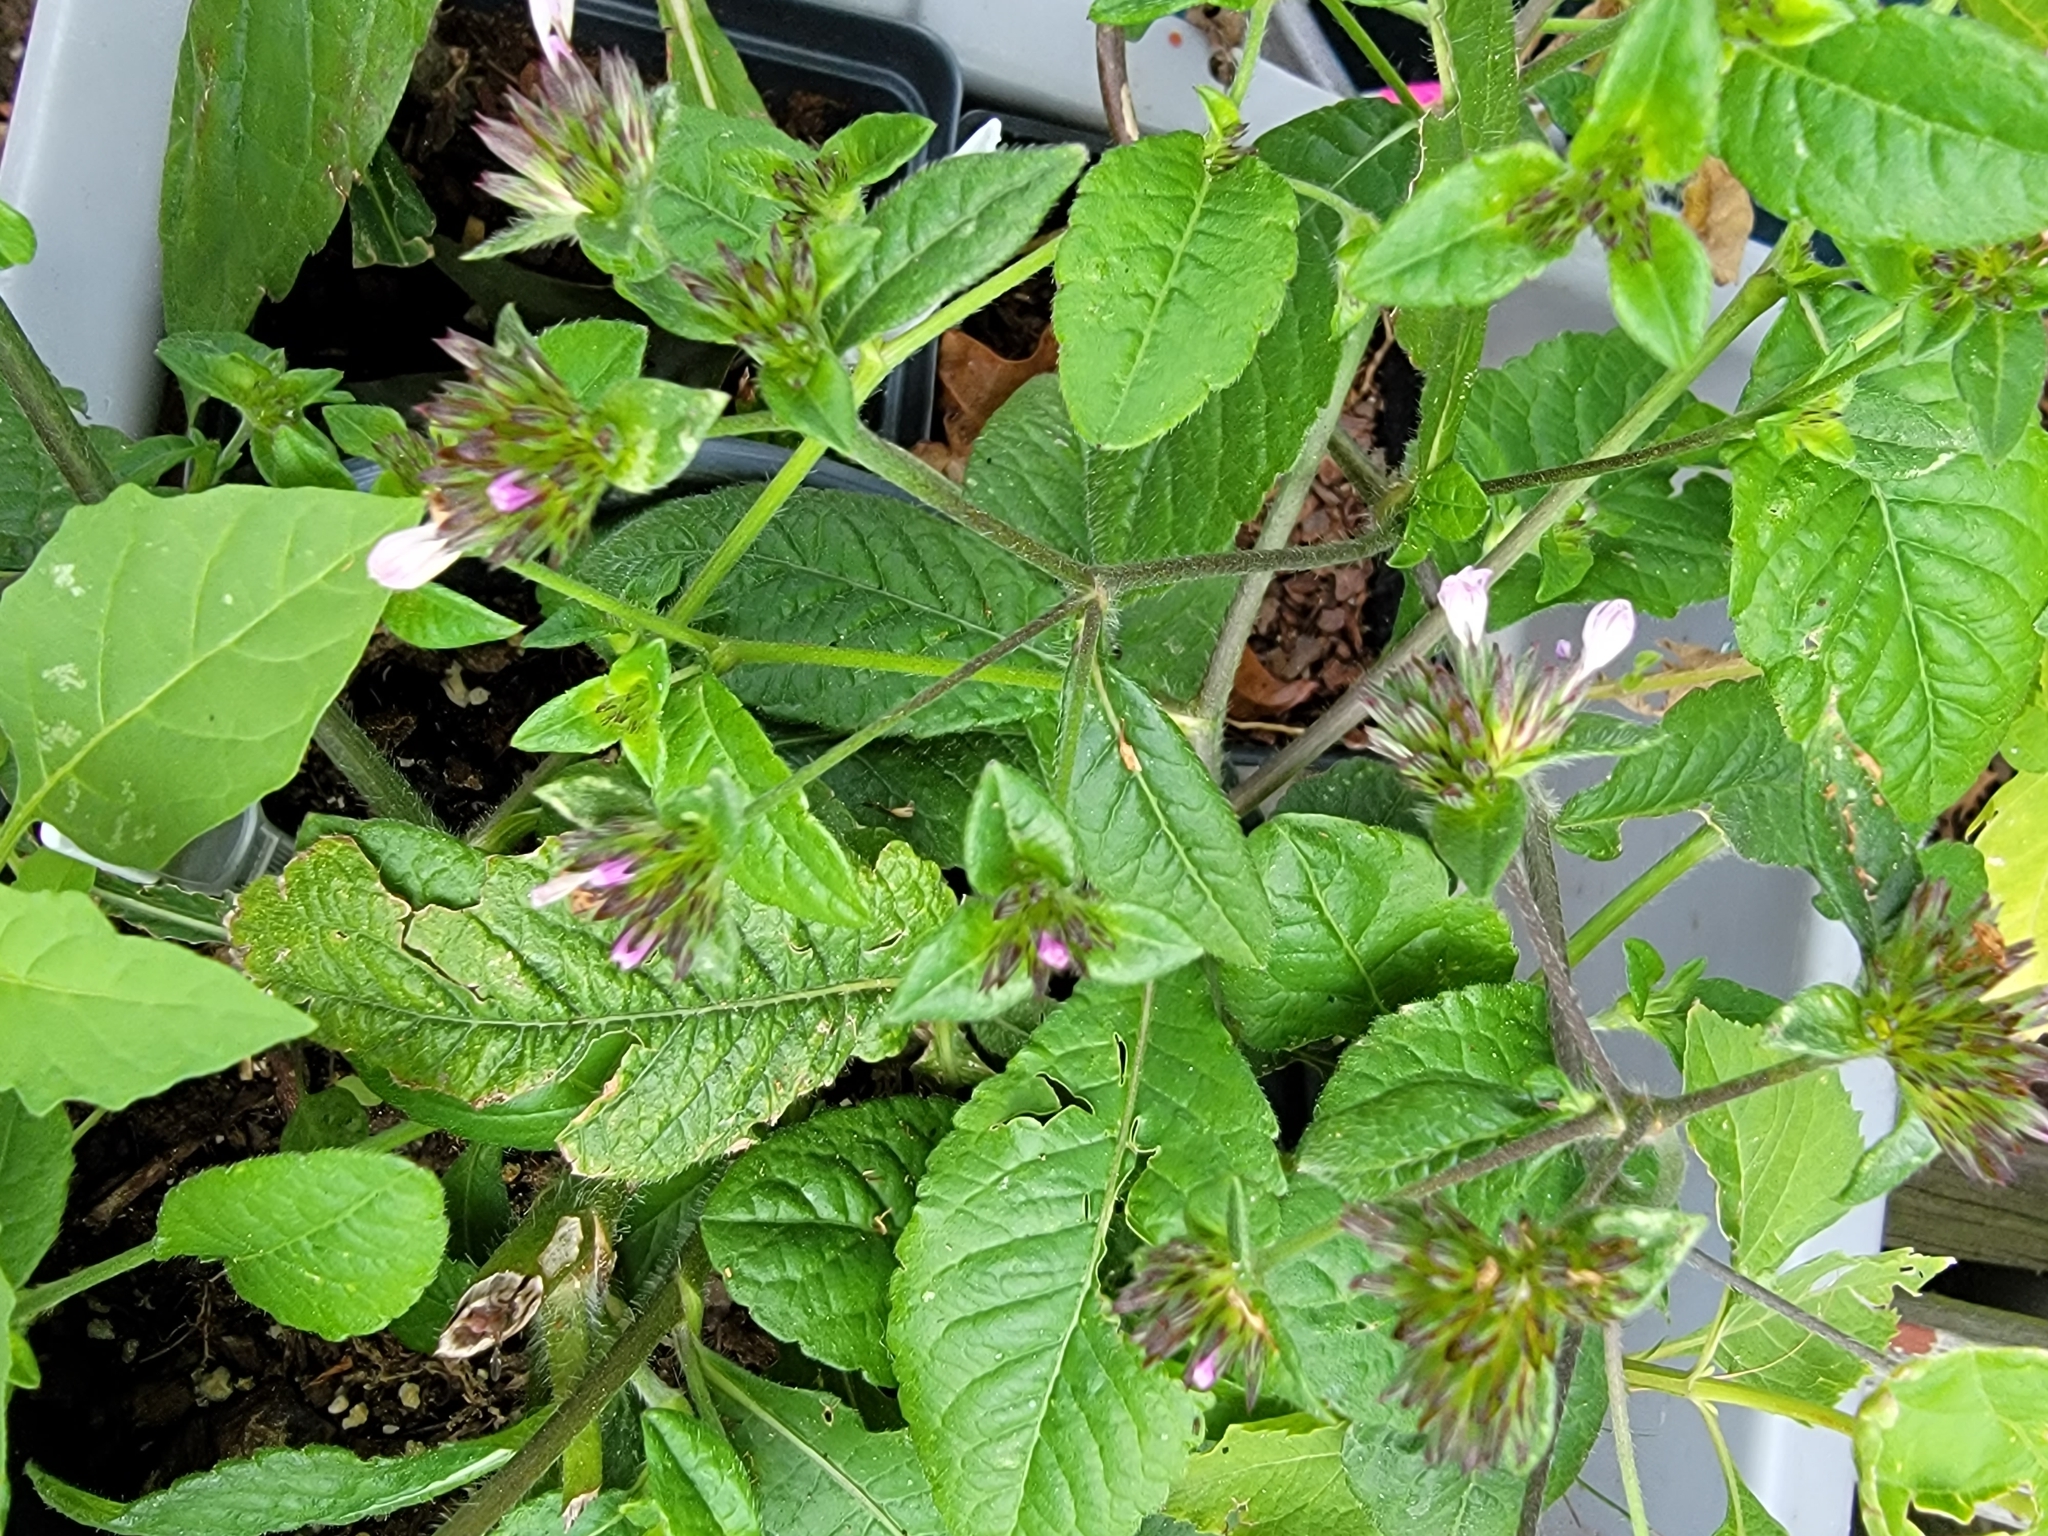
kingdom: Plantae
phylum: Tracheophyta
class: Magnoliopsida
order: Asterales
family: Asteraceae
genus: Elephantopus
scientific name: Elephantopus carolinianus
